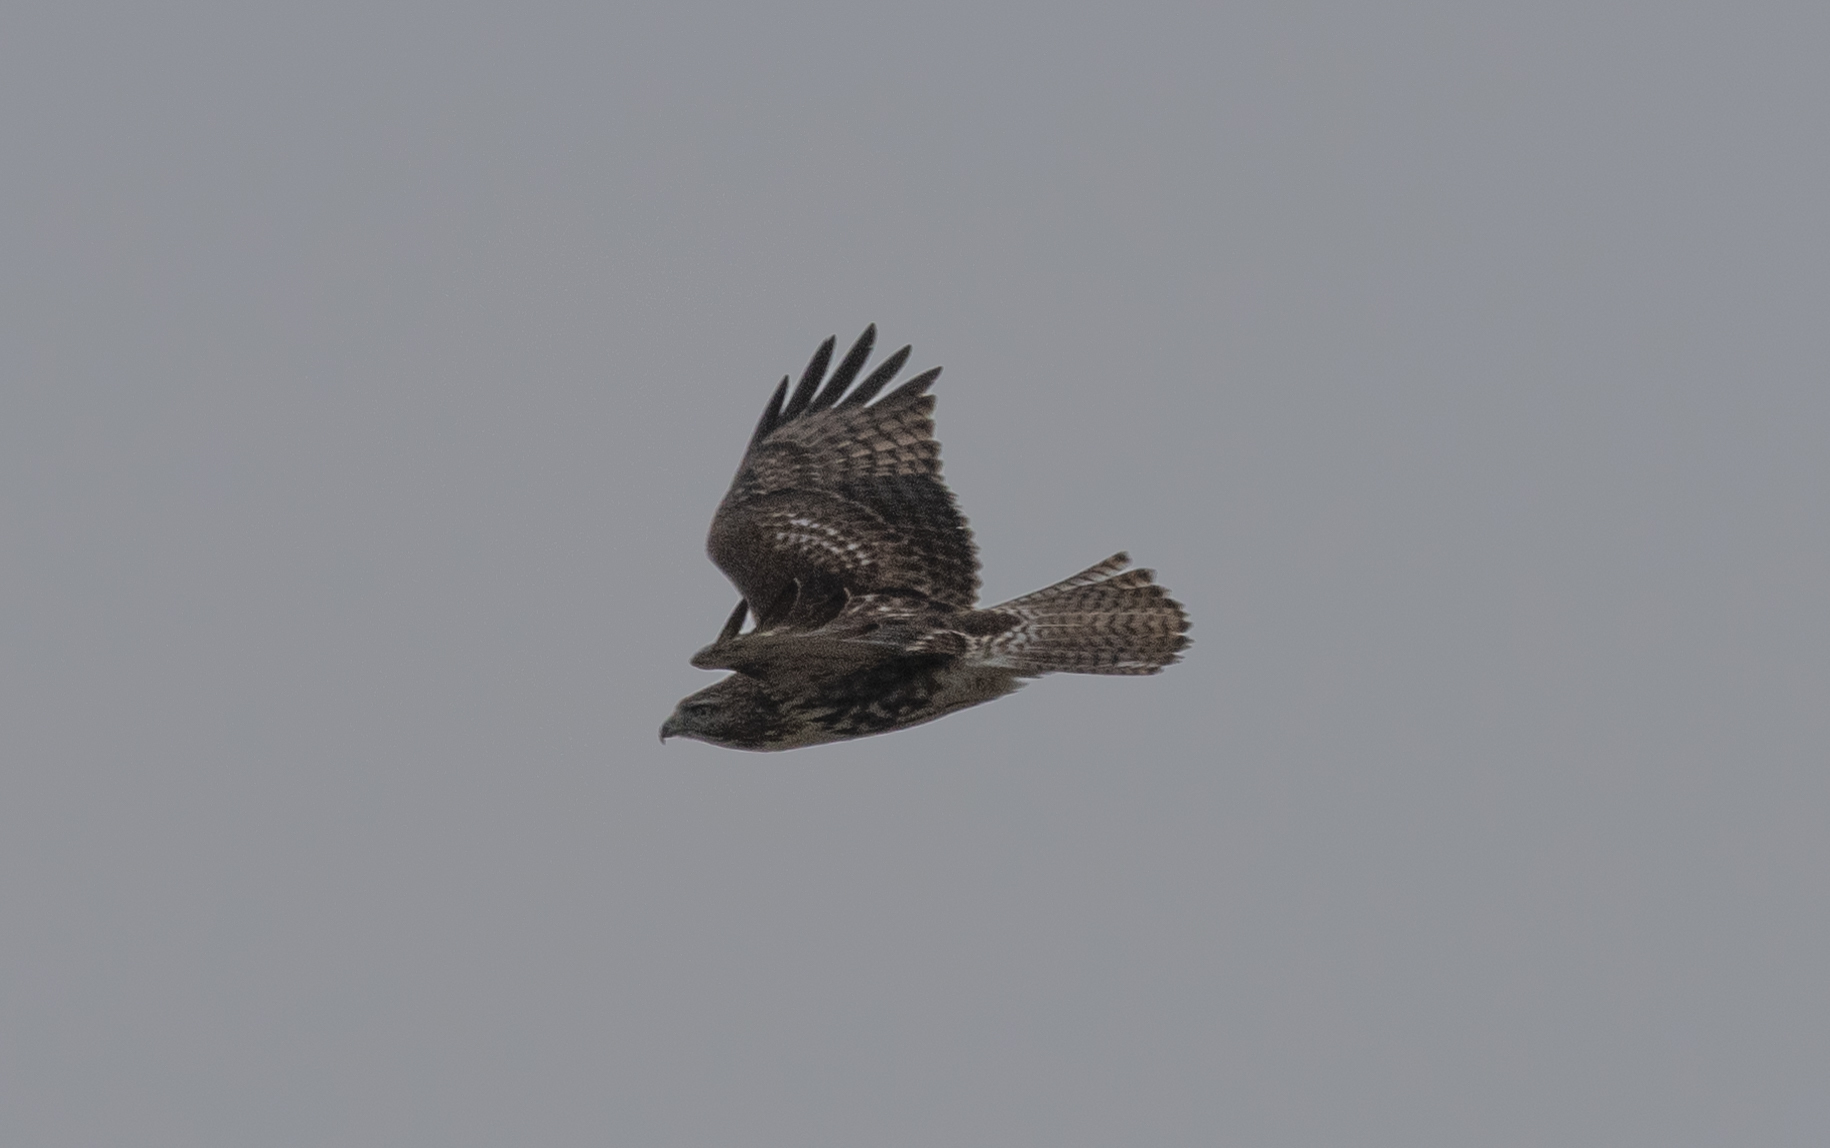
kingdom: Animalia
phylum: Chordata
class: Aves
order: Accipitriformes
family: Accipitridae
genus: Buteo
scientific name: Buteo jamaicensis
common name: Red-tailed hawk
